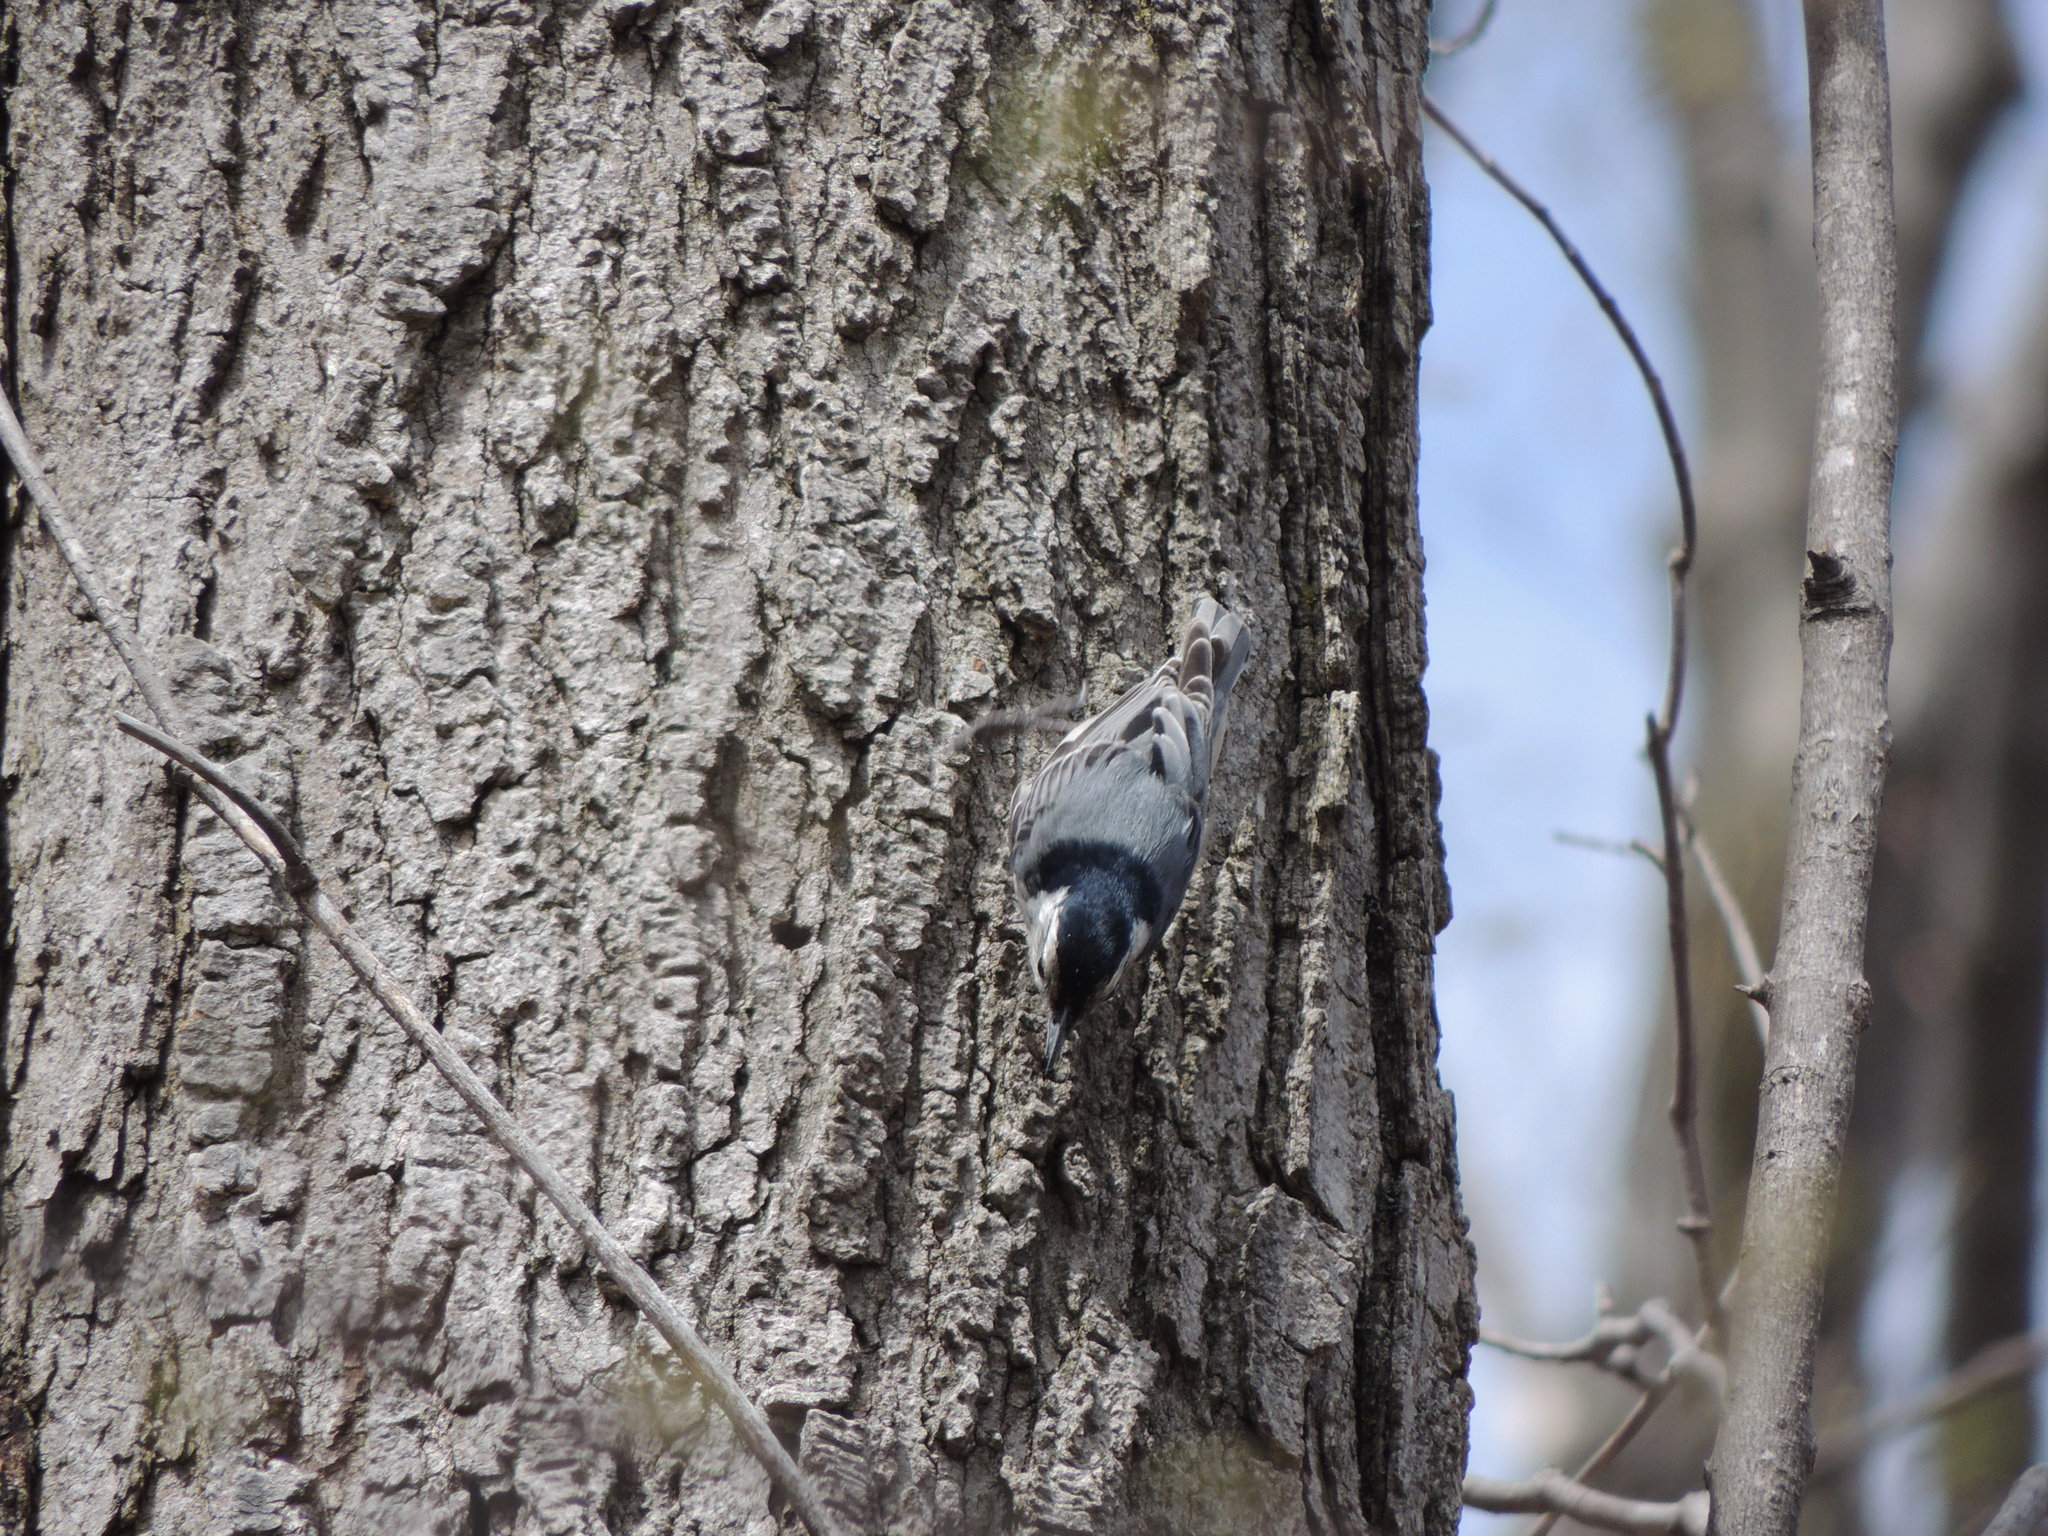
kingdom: Animalia
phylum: Chordata
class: Aves
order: Passeriformes
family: Sittidae
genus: Sitta
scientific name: Sitta carolinensis
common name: White-breasted nuthatch
